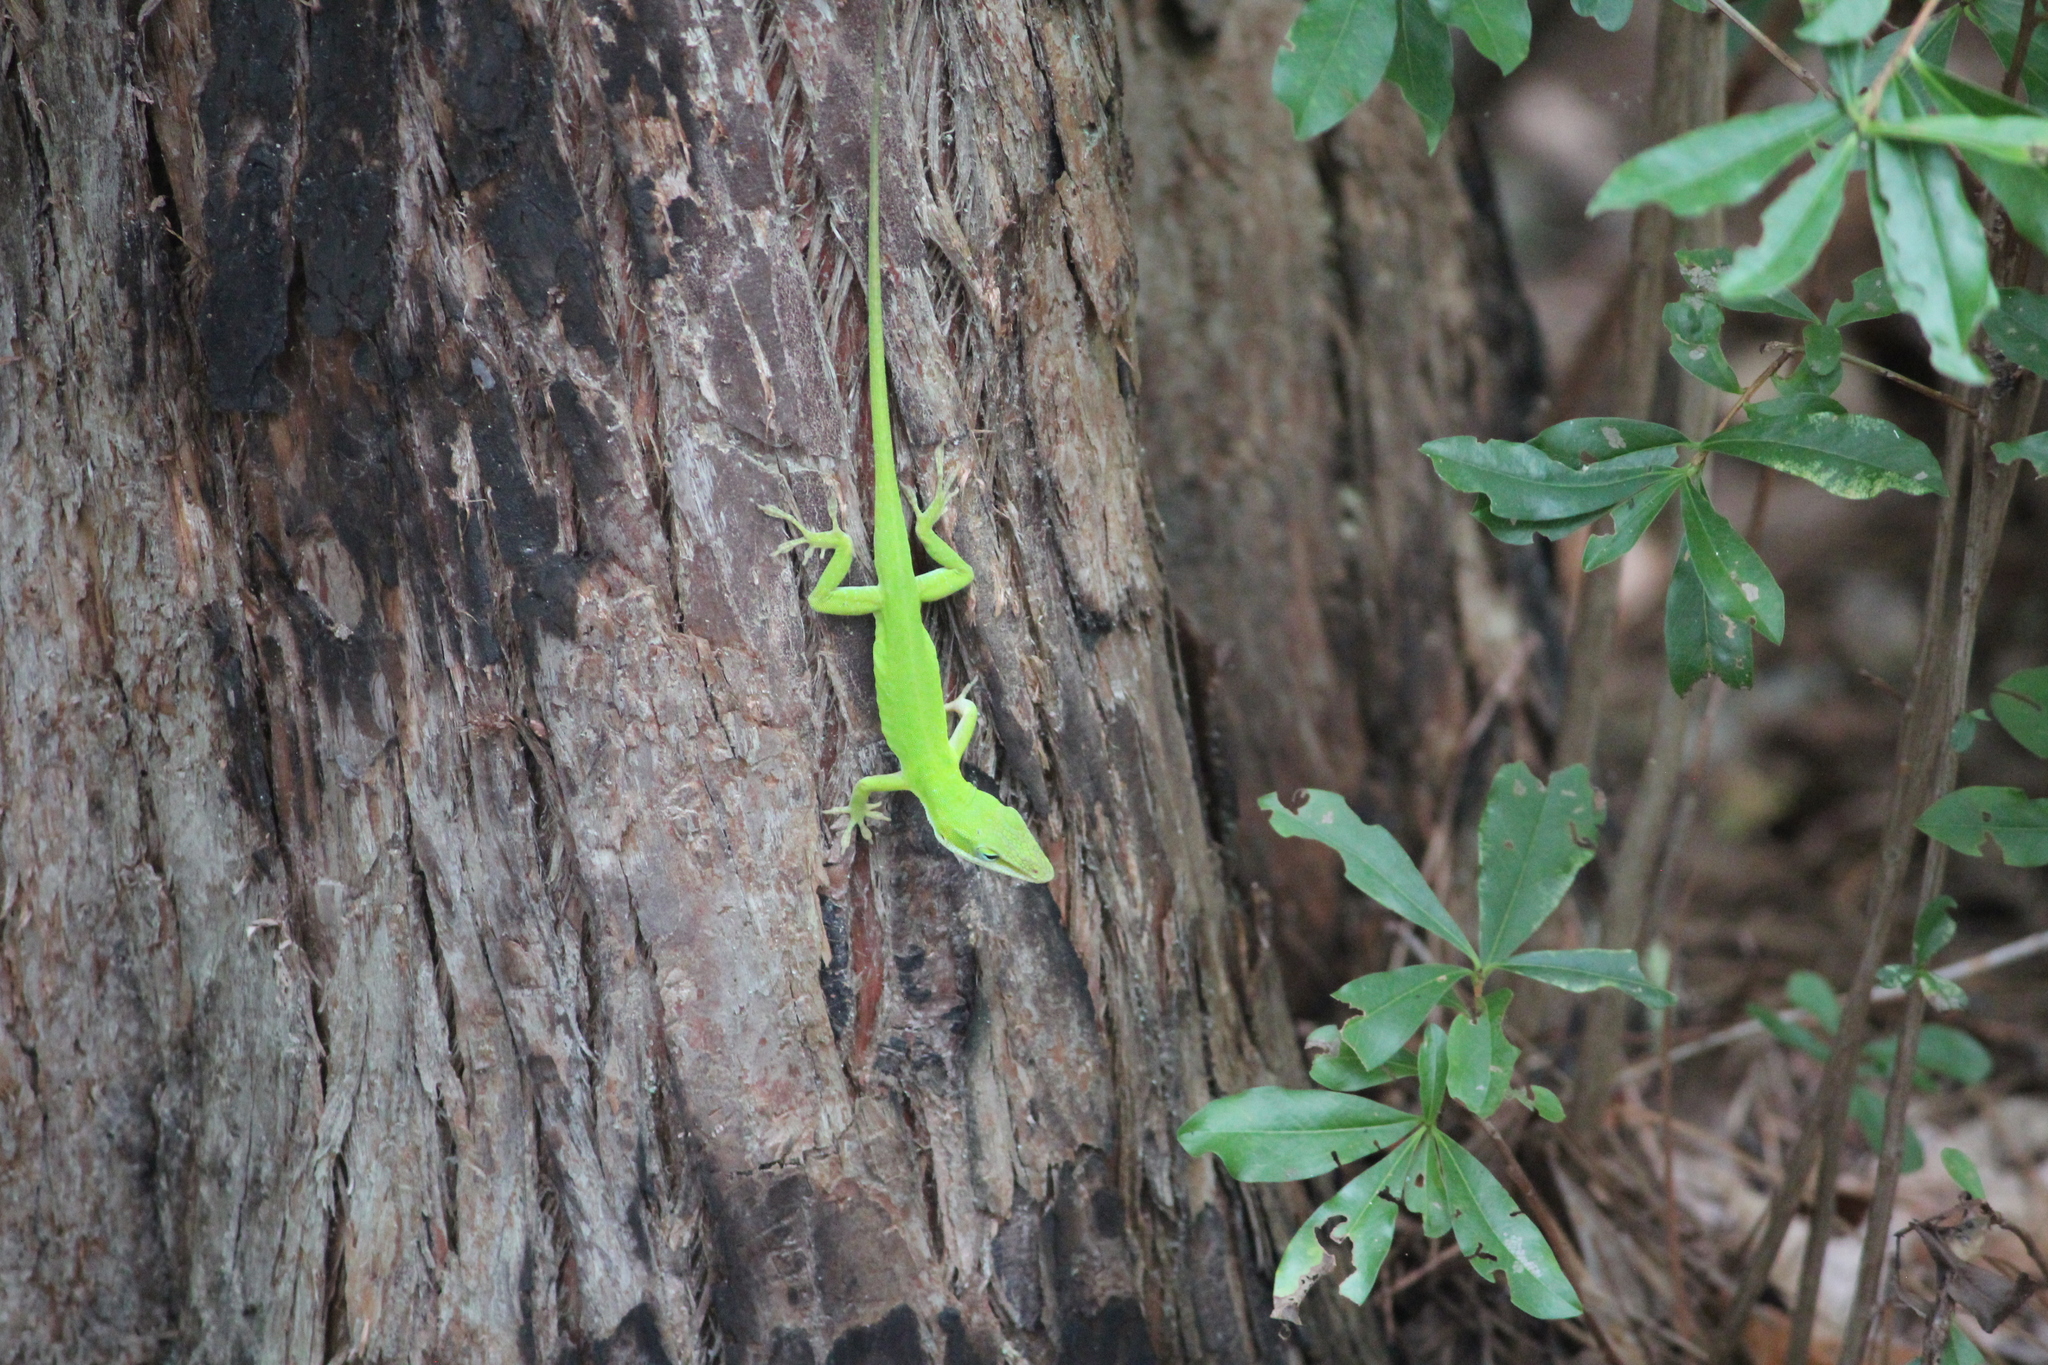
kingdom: Animalia
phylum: Chordata
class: Squamata
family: Dactyloidae
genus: Anolis
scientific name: Anolis carolinensis
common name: Green anole
